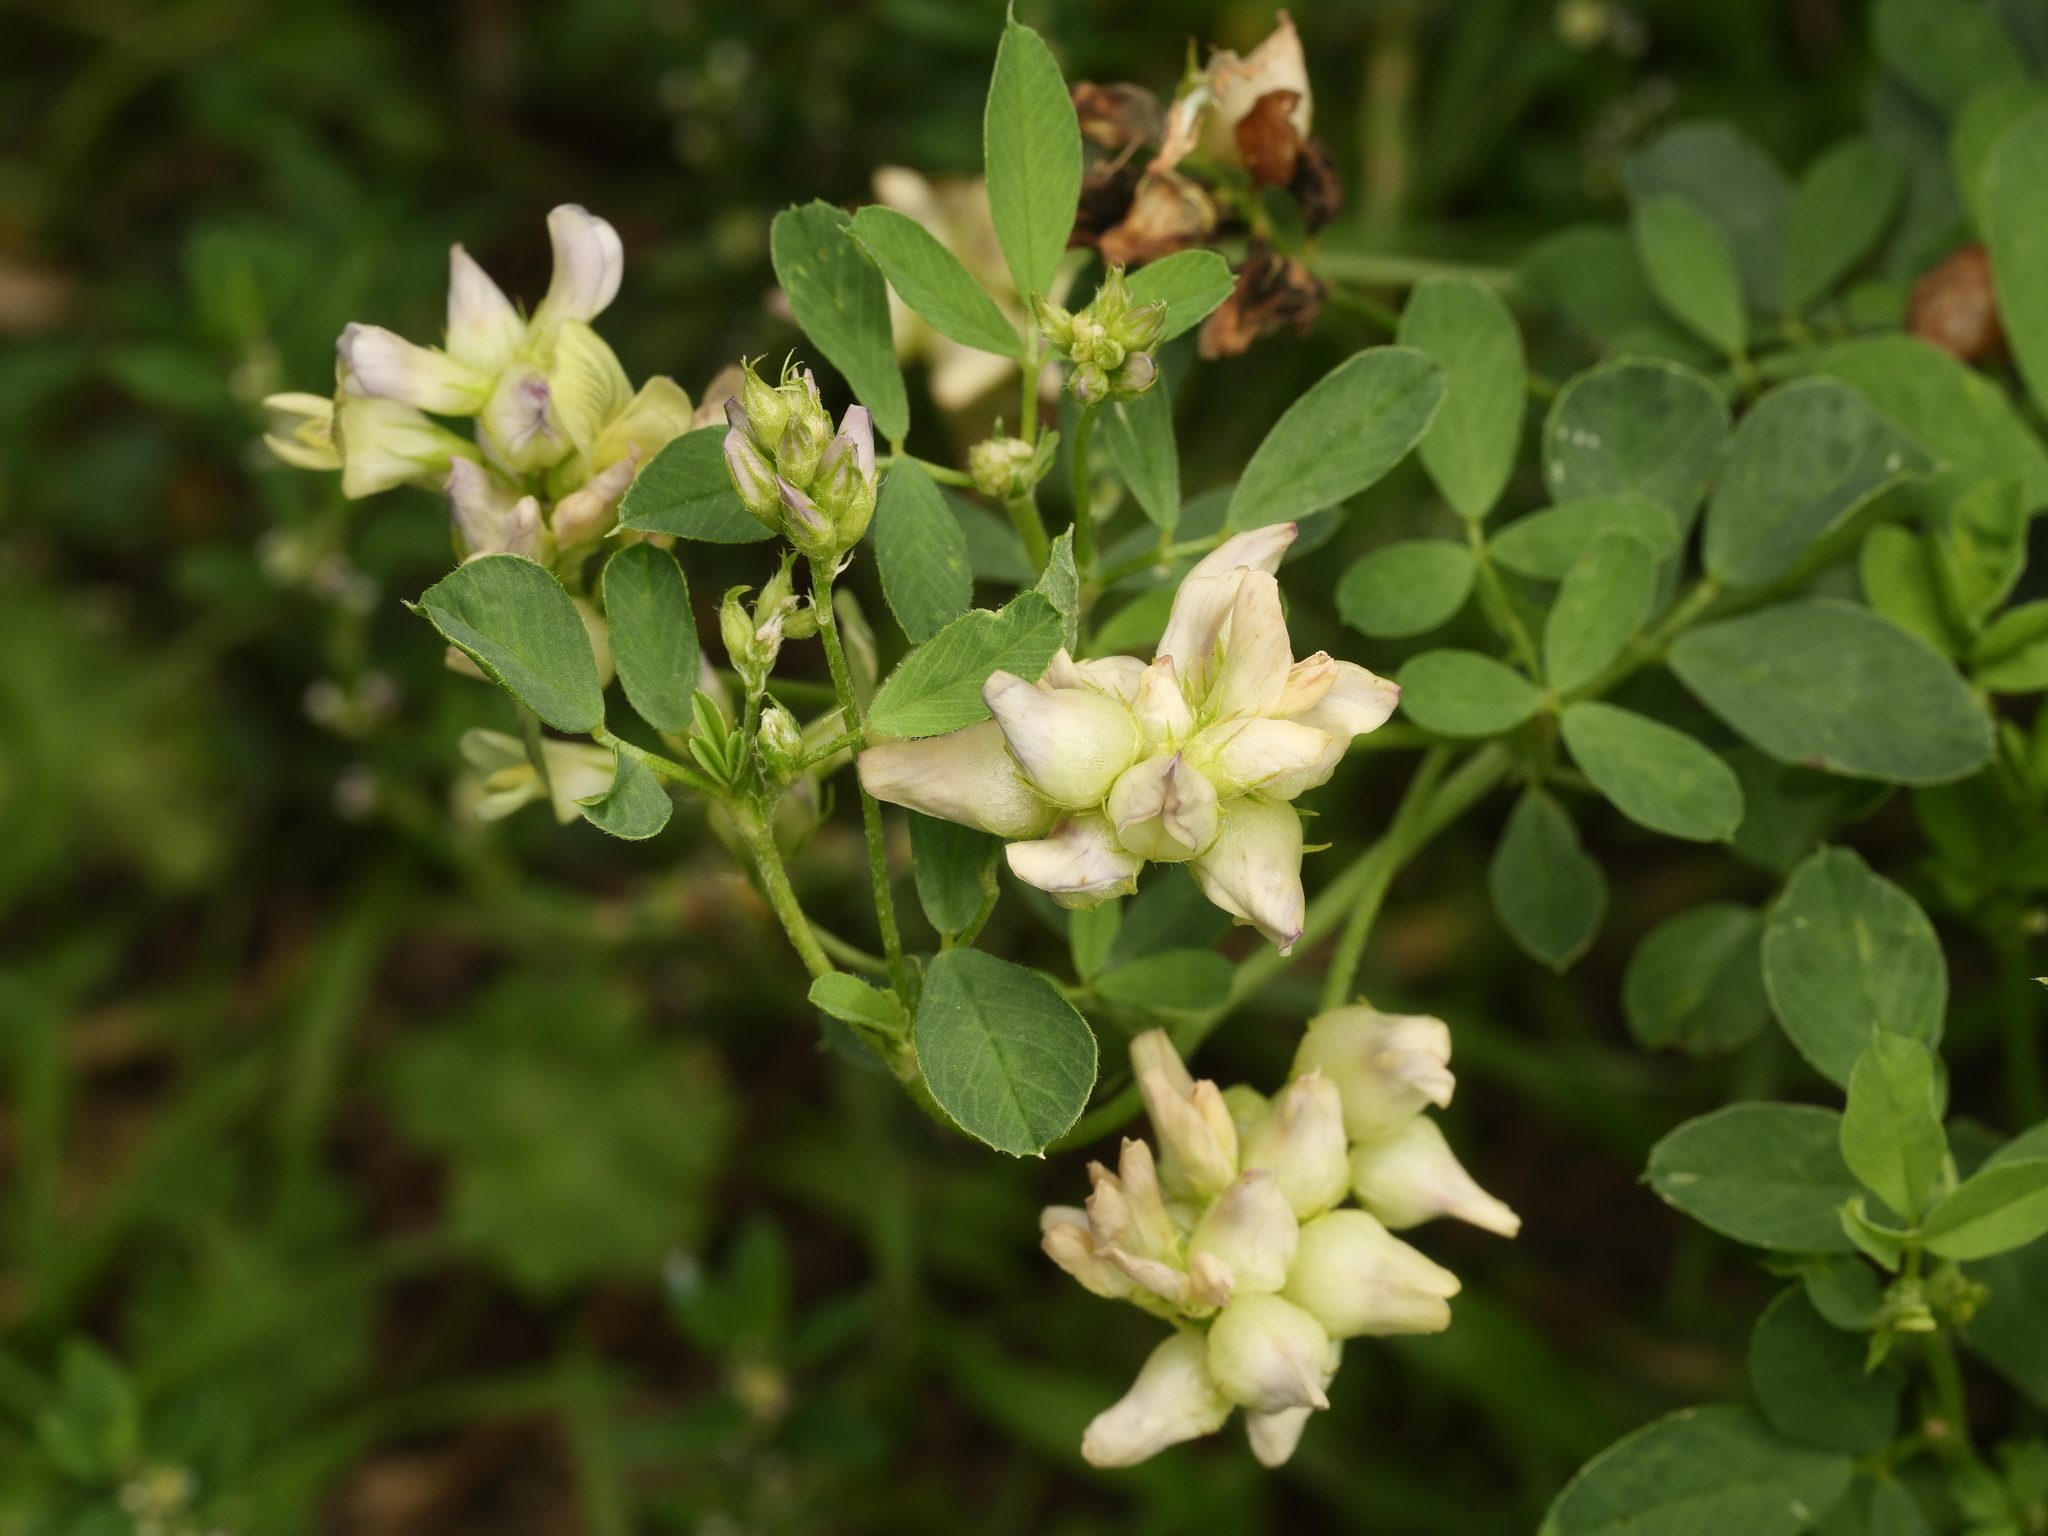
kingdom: Plantae
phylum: Tracheophyta
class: Magnoliopsida
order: Fabales
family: Fabaceae
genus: Medicago
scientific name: Medicago varia
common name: Sand lucerne
